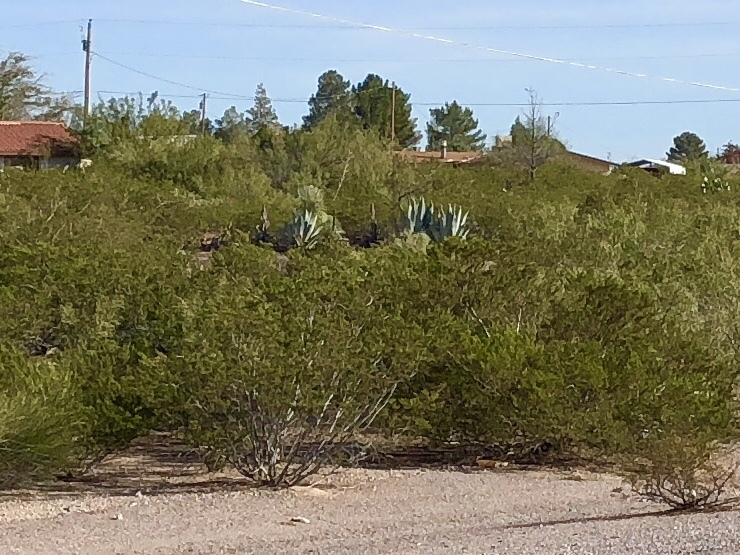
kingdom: Plantae
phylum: Tracheophyta
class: Magnoliopsida
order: Zygophyllales
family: Zygophyllaceae
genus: Larrea
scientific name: Larrea tridentata
